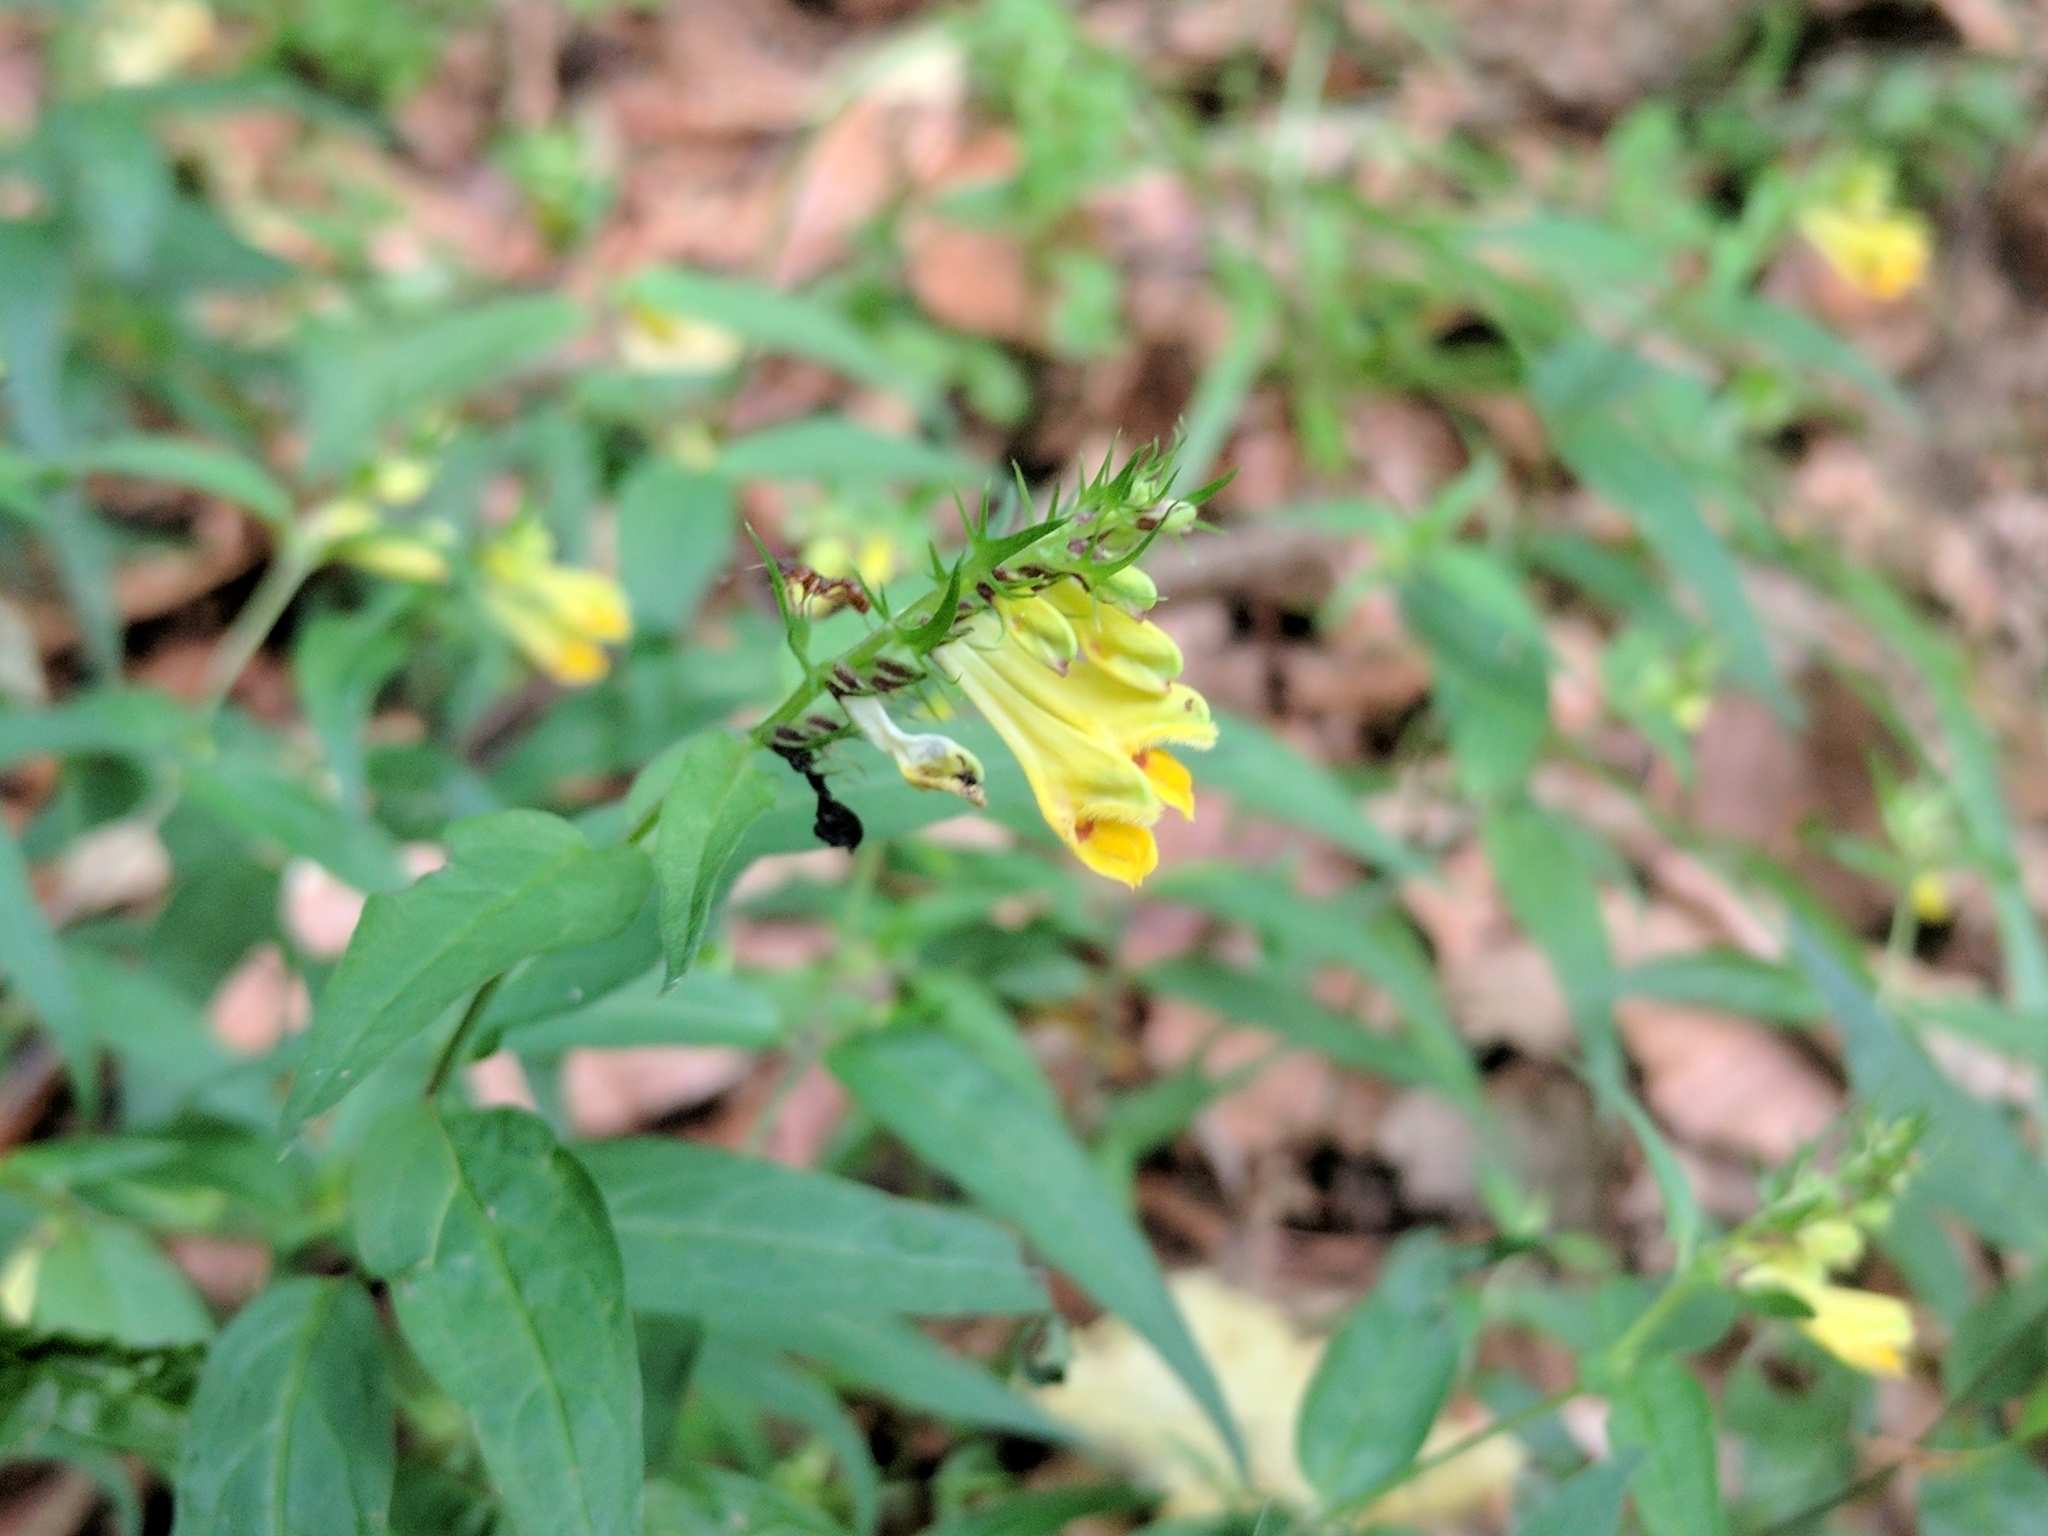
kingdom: Plantae
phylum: Tracheophyta
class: Magnoliopsida
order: Lamiales
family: Orobanchaceae
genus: Melampyrum
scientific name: Melampyrum pratense
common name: Common cow-wheat
